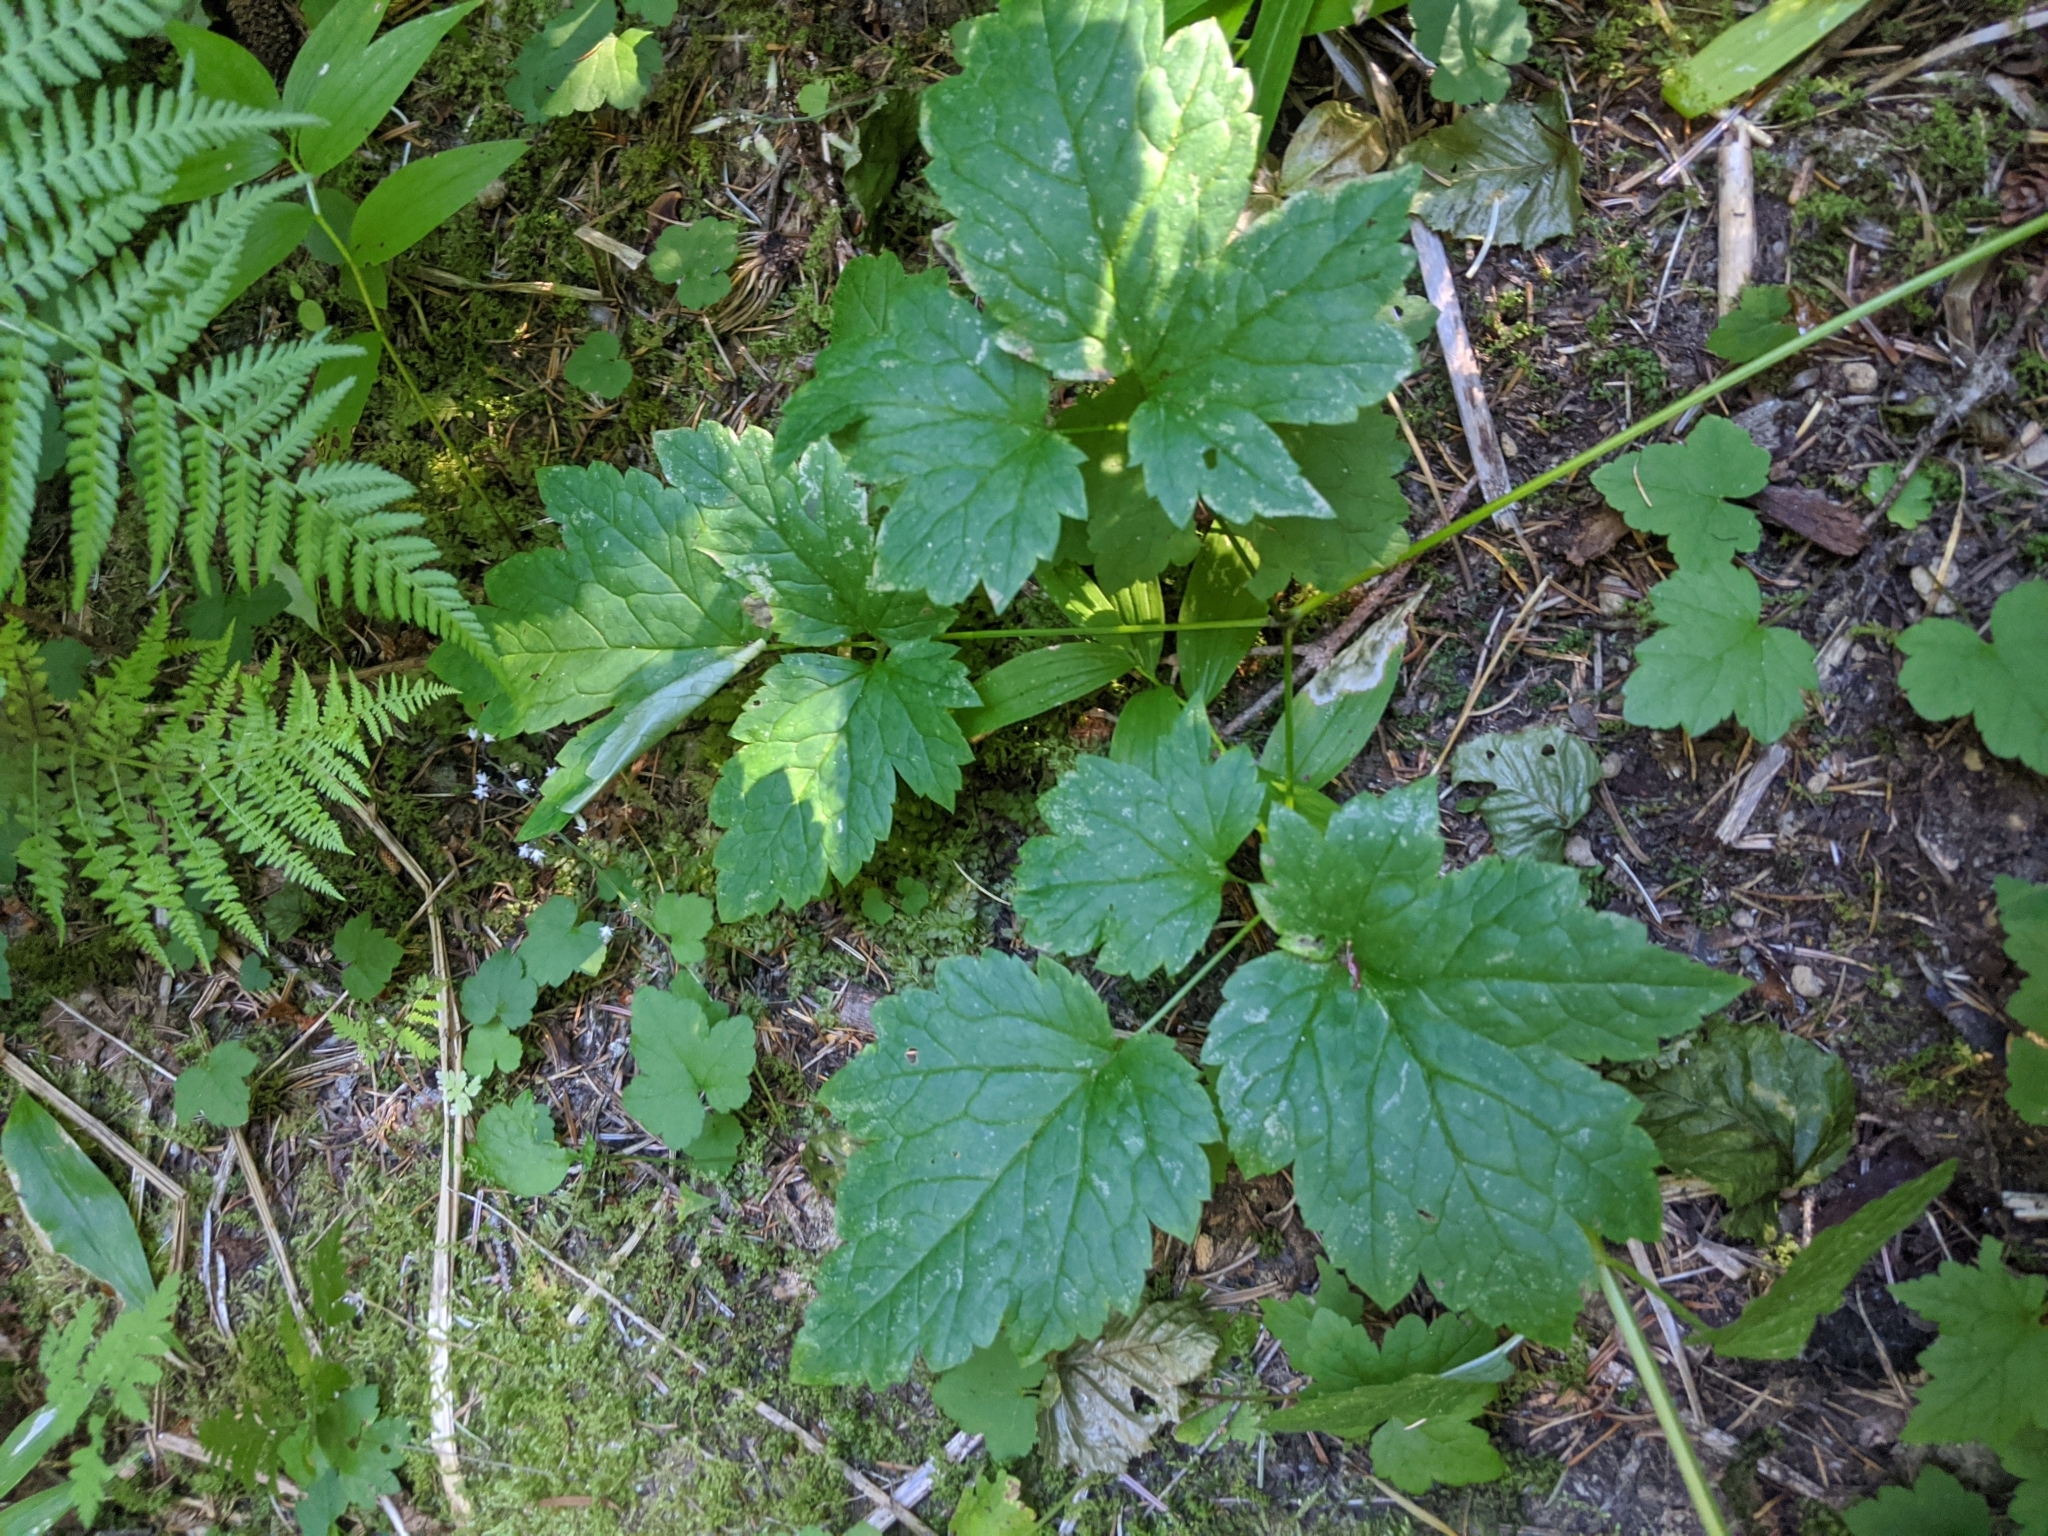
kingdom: Plantae
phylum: Tracheophyta
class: Magnoliopsida
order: Ranunculales
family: Ranunculaceae
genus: Actaea
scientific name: Actaea rubra
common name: Red baneberry
